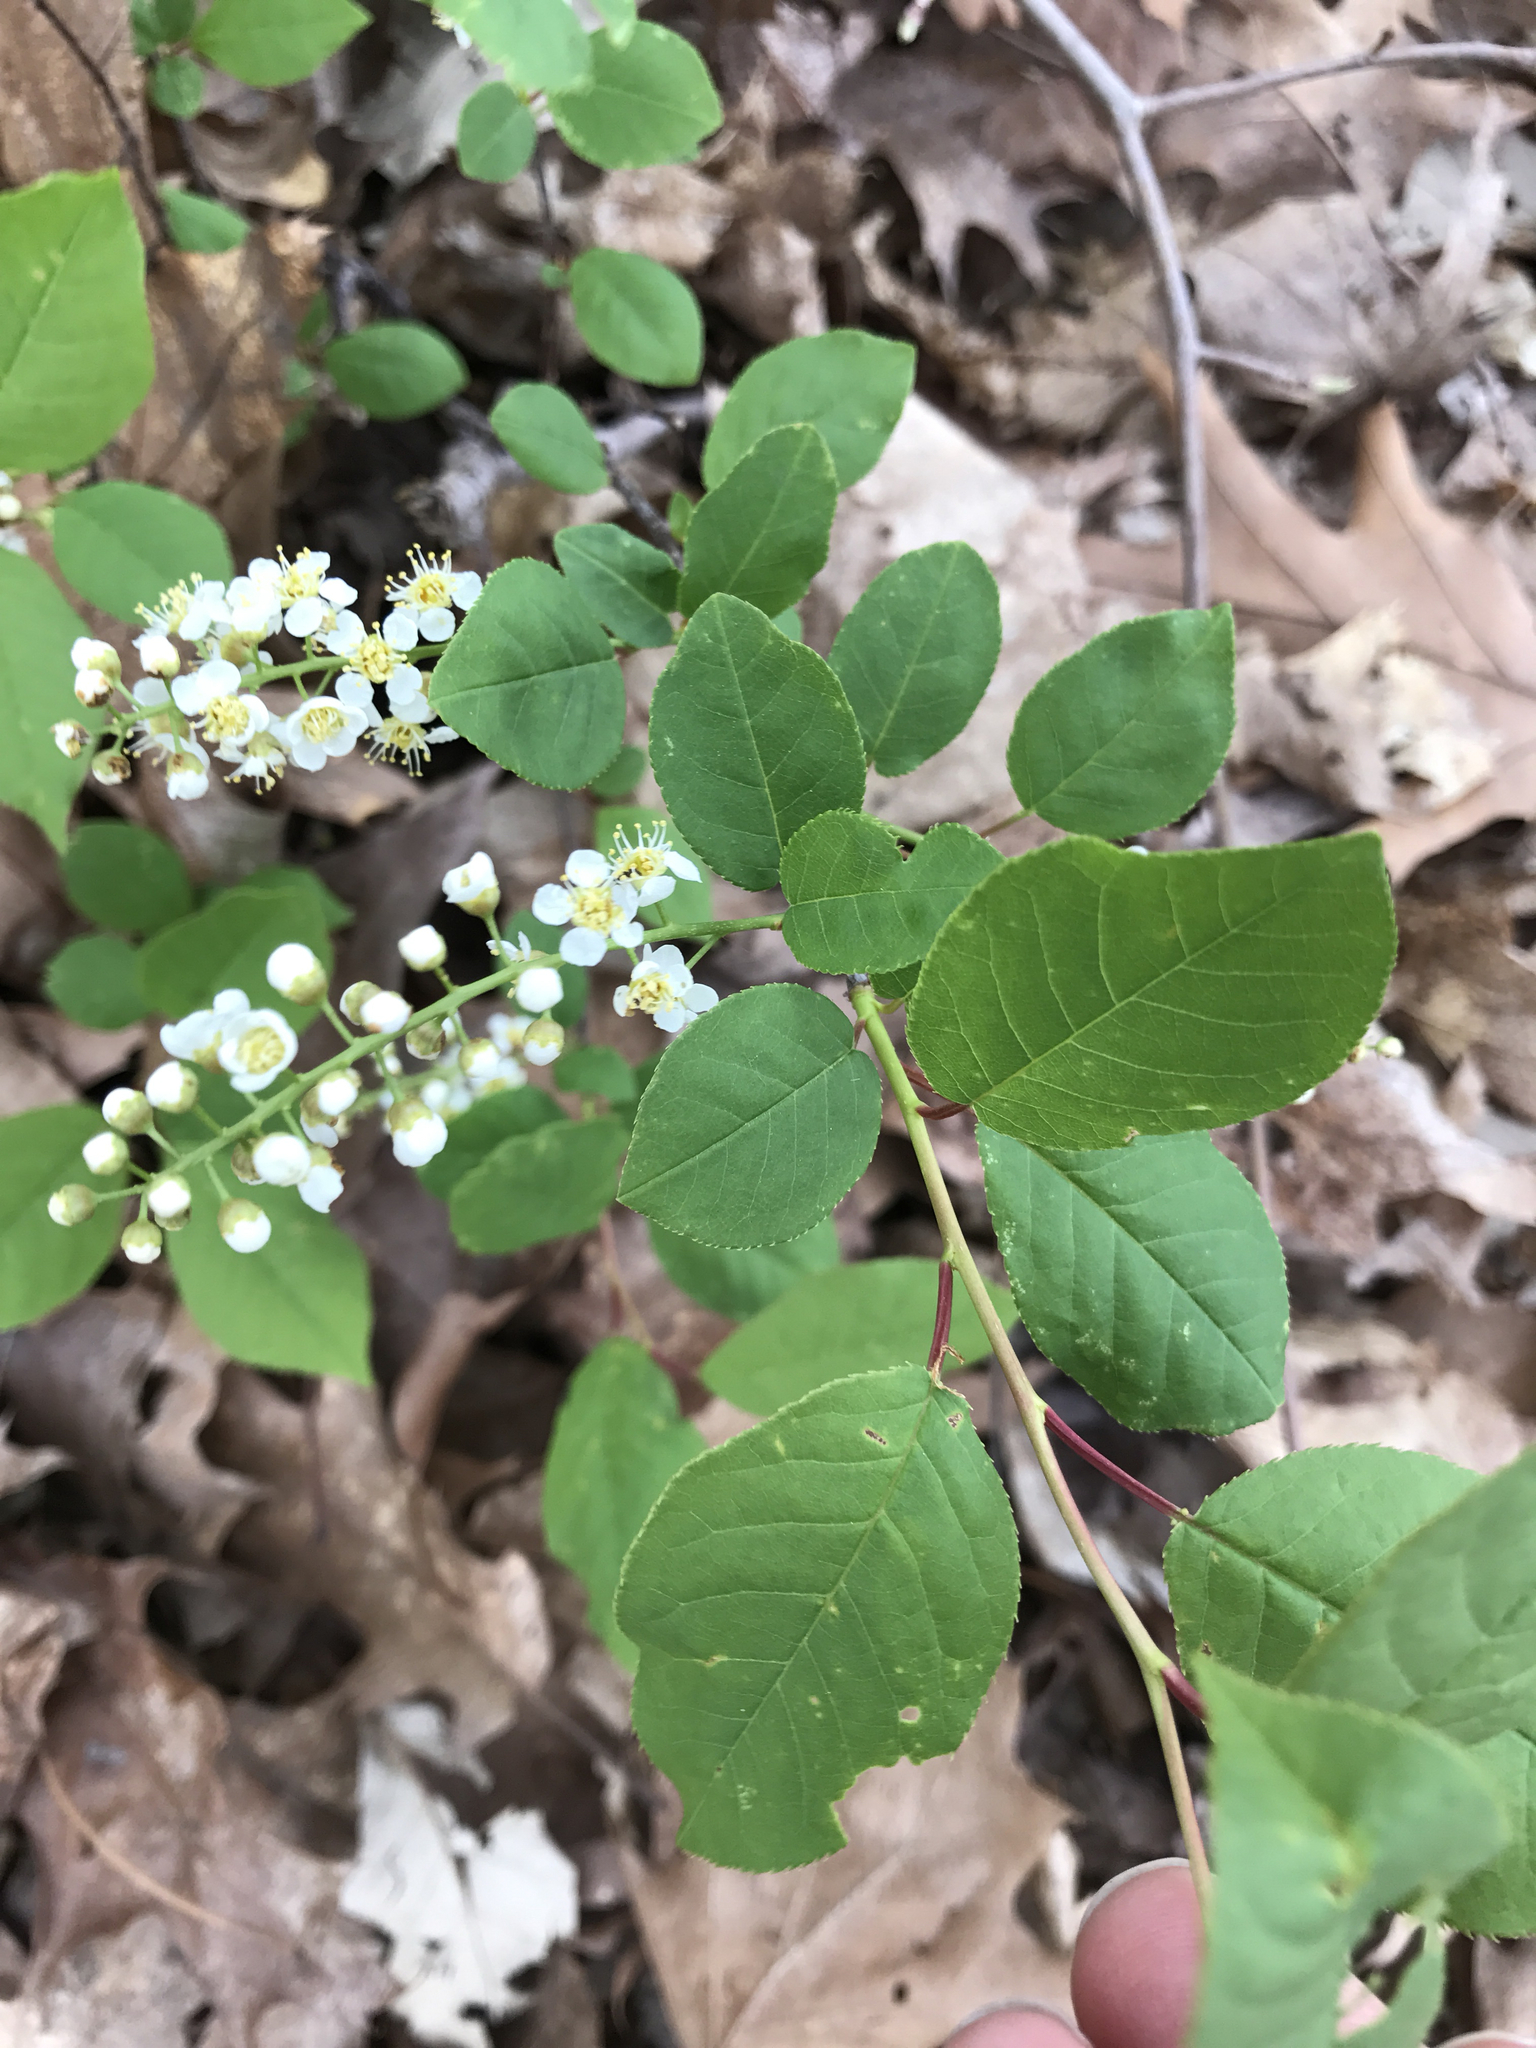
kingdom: Plantae
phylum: Tracheophyta
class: Magnoliopsida
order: Rosales
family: Rosaceae
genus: Prunus
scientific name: Prunus virginiana
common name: Chokecherry
